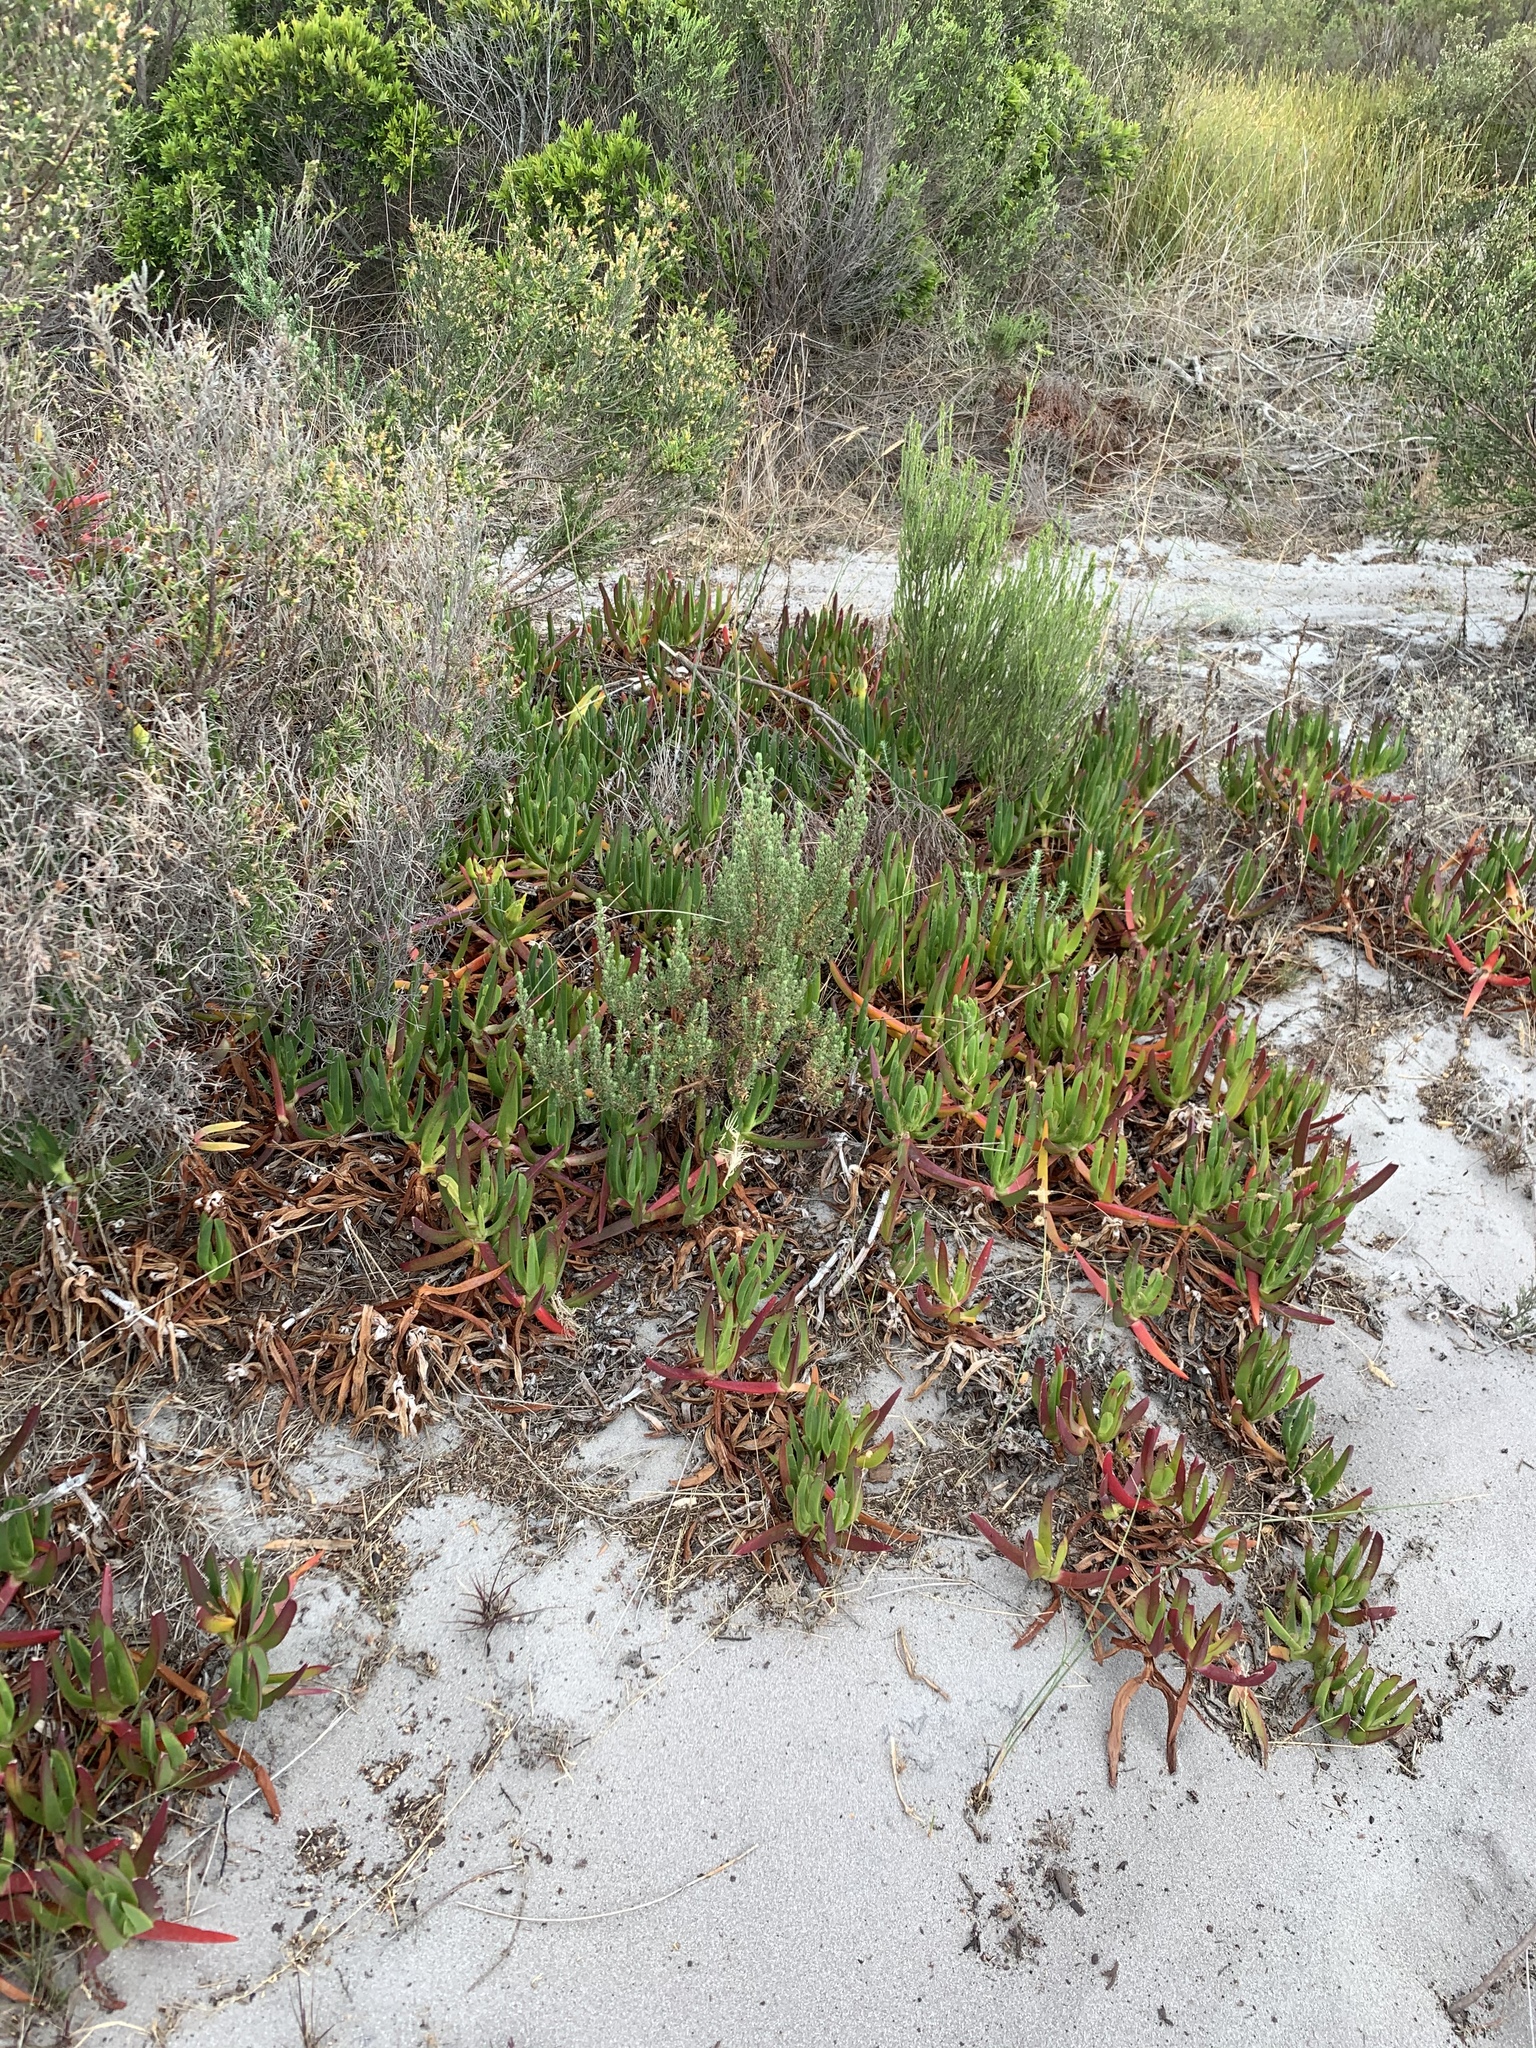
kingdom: Plantae
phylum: Tracheophyta
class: Magnoliopsida
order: Caryophyllales
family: Aizoaceae
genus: Carpobrotus
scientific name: Carpobrotus edulis
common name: Hottentot-fig
